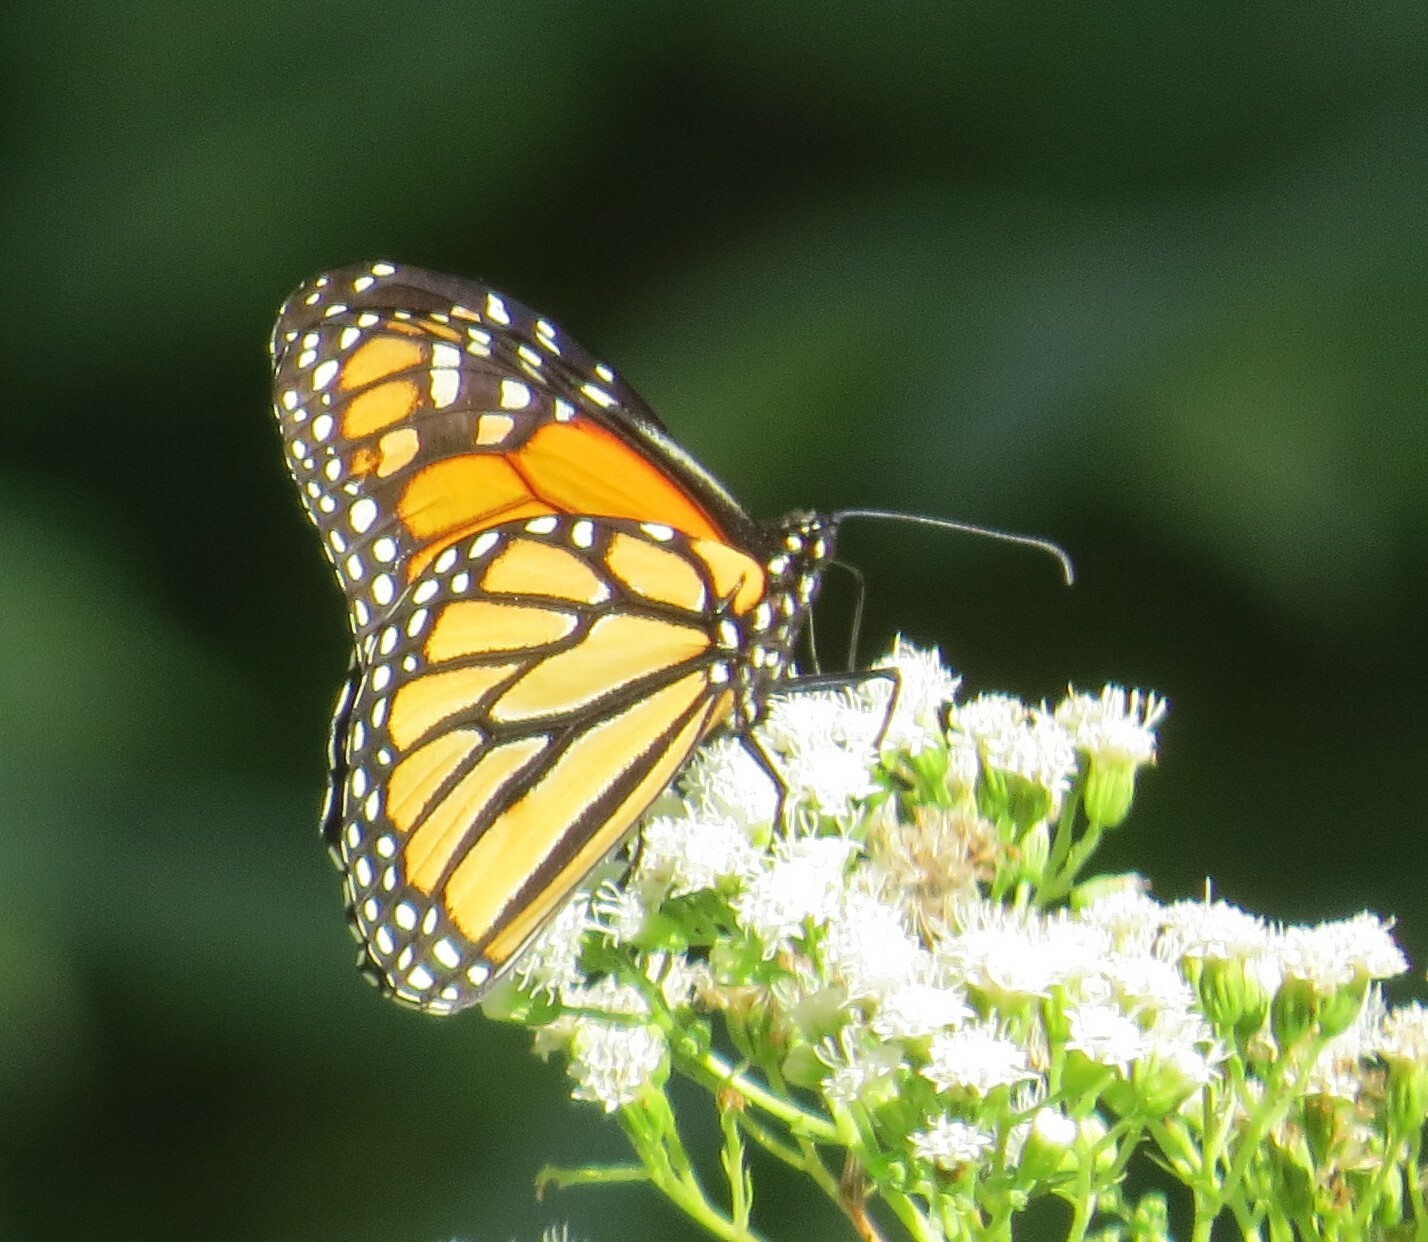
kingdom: Animalia
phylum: Arthropoda
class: Insecta
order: Lepidoptera
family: Nymphalidae
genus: Danaus
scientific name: Danaus plexippus
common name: Monarch
